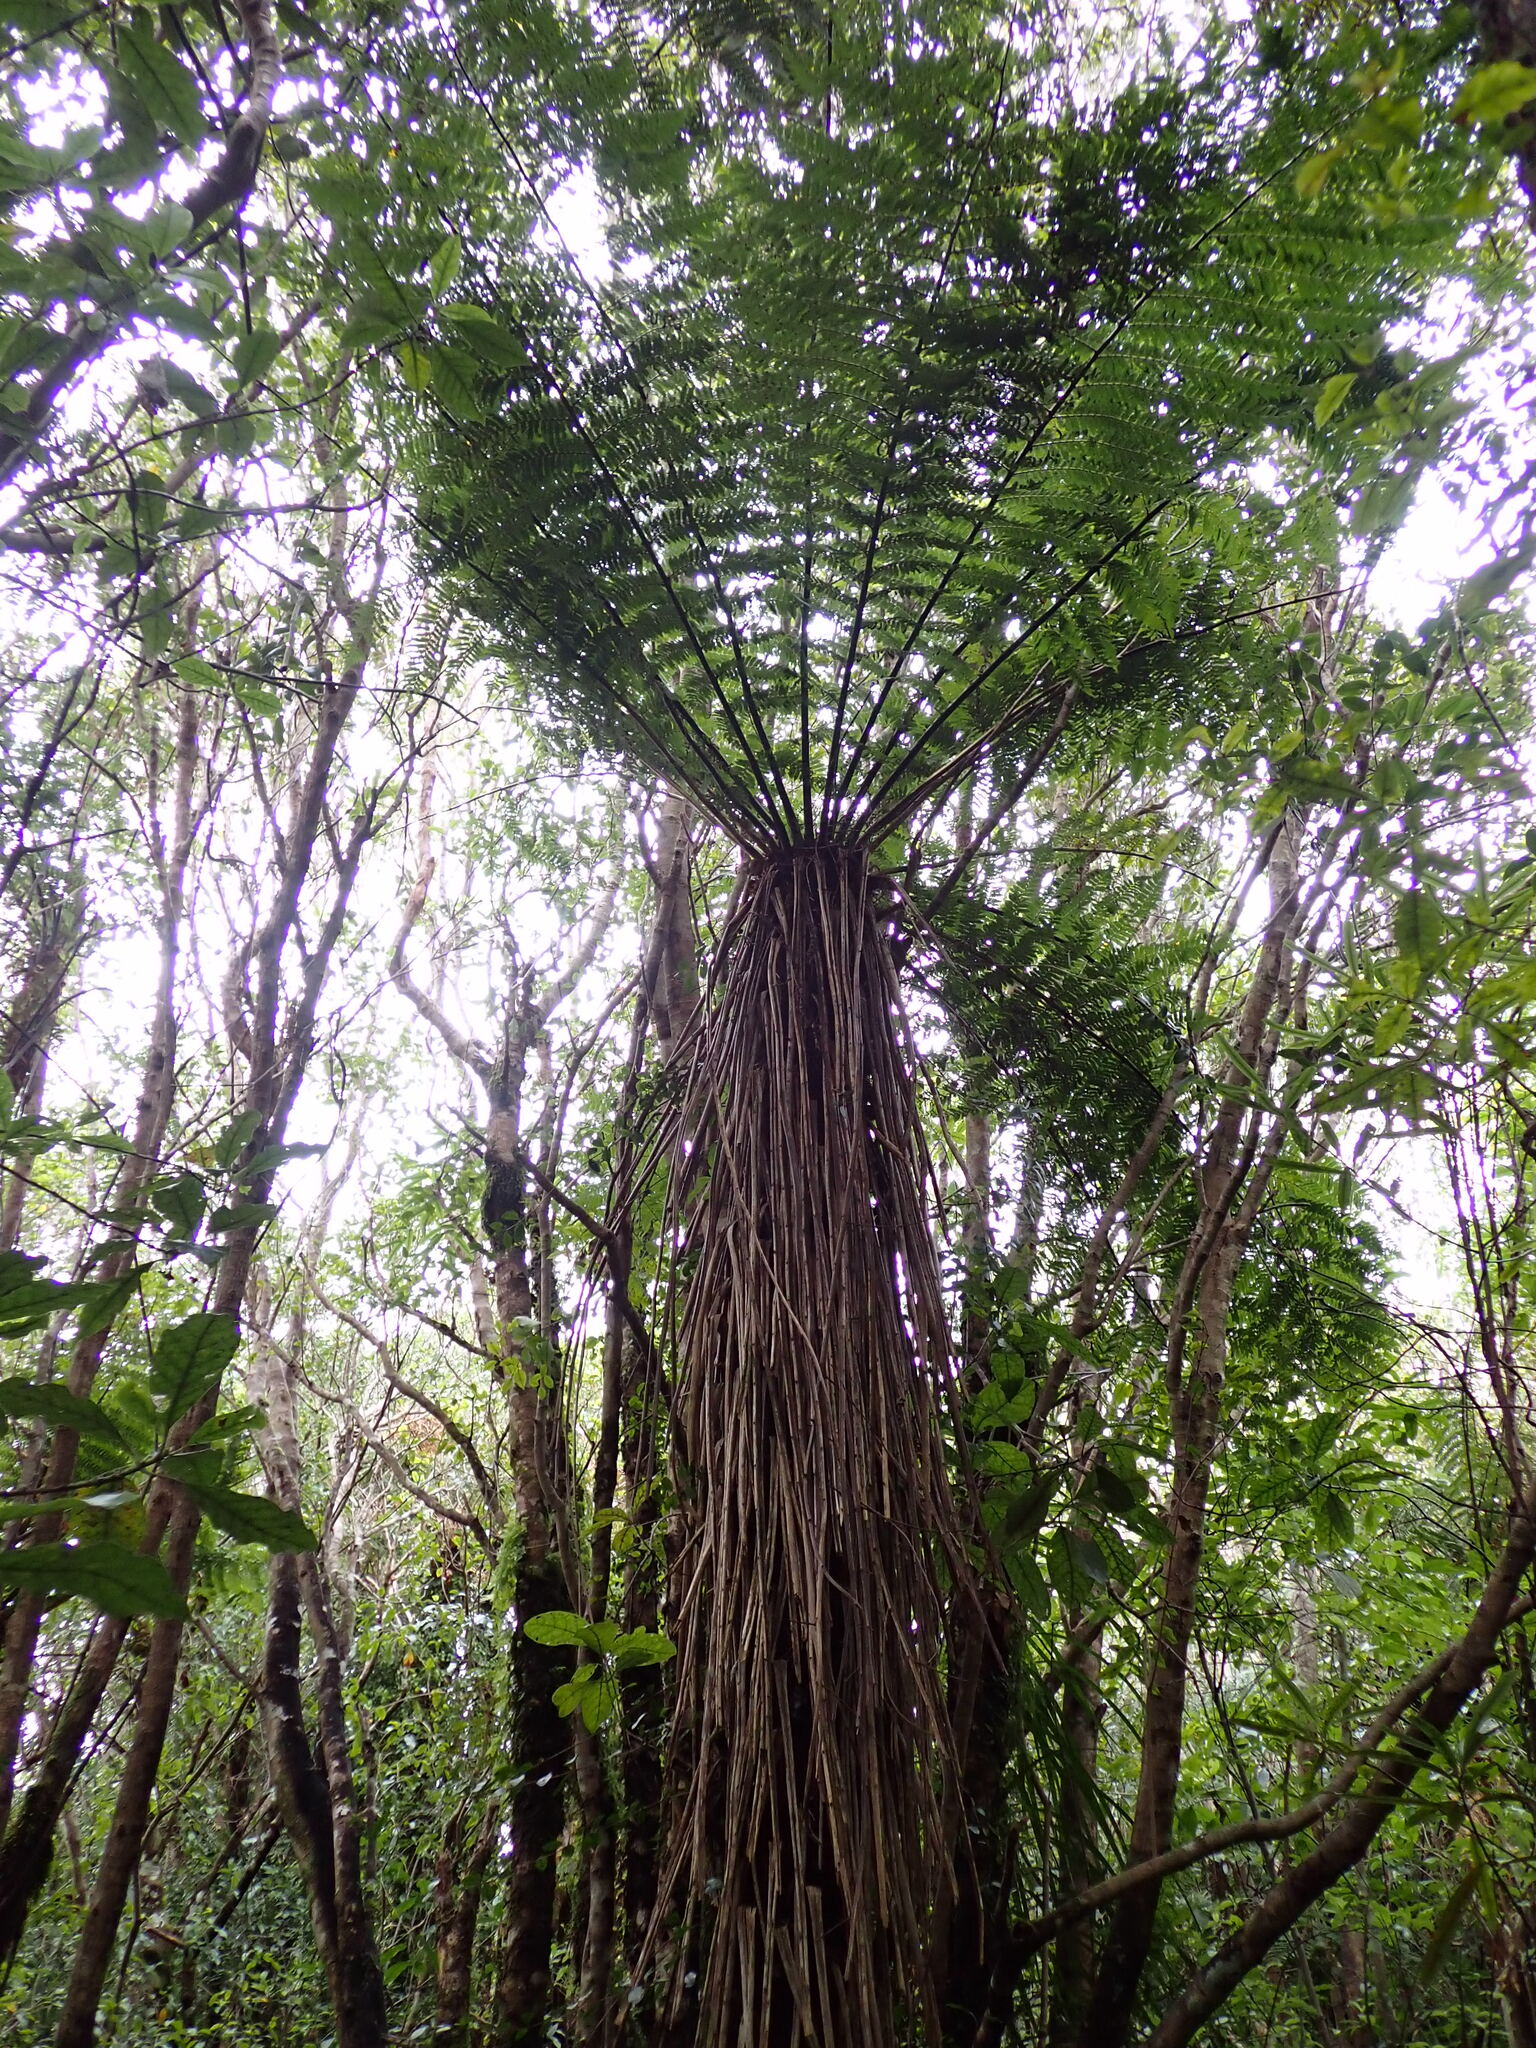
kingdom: Plantae
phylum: Tracheophyta
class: Polypodiopsida
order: Cyatheales
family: Cyatheaceae
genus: Alsophila
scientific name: Alsophila smithii
